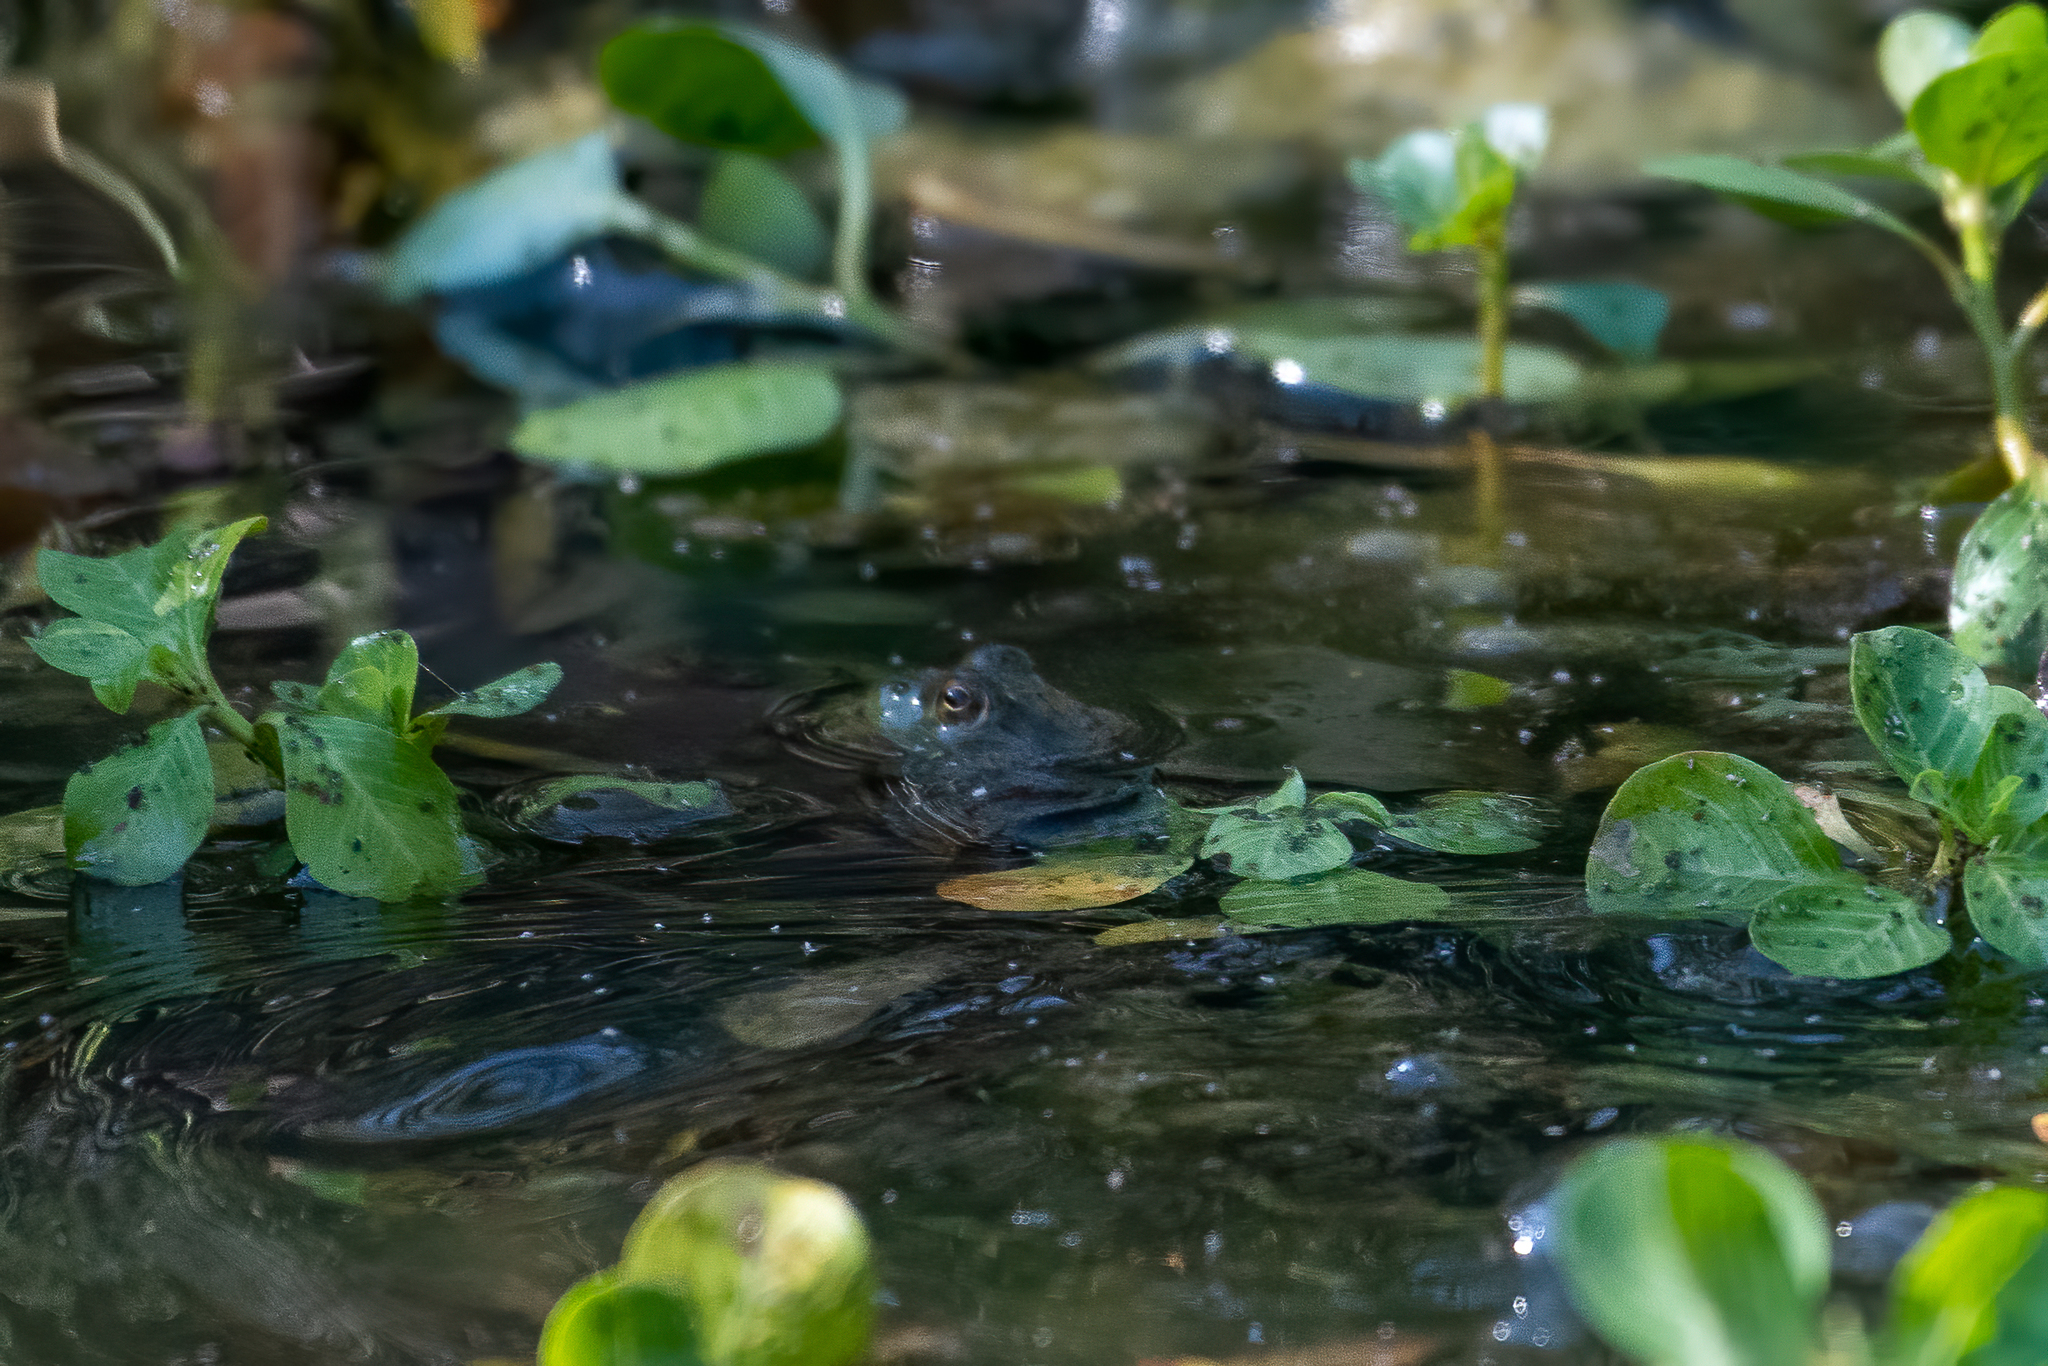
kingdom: Animalia
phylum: Chordata
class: Aves
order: Passeriformes
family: Tyrannidae
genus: Sayornis
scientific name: Sayornis nigricans
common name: Black phoebe
